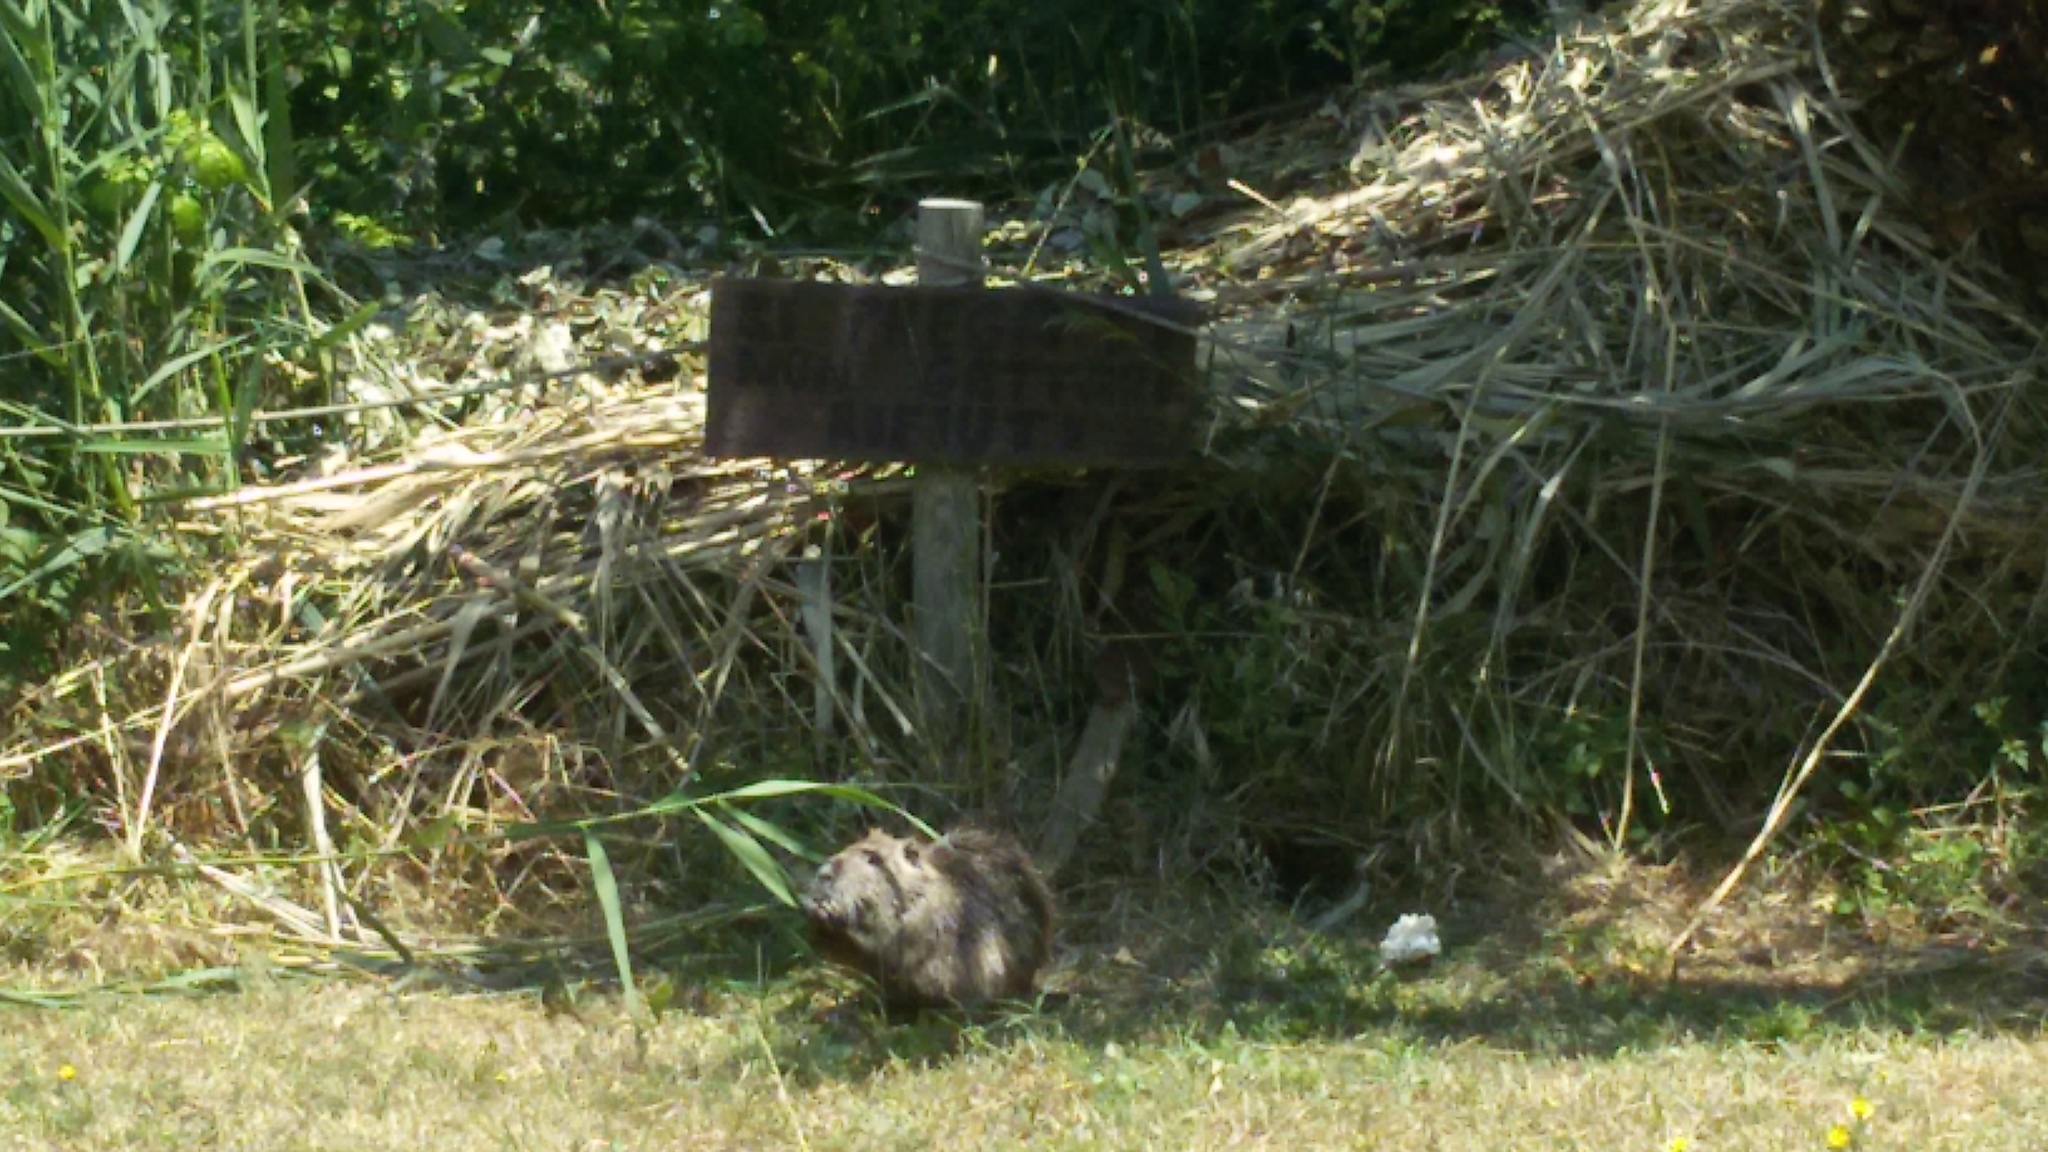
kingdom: Animalia
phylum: Chordata
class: Mammalia
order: Rodentia
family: Myocastoridae
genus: Myocastor
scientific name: Myocastor coypus
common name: Coypu
